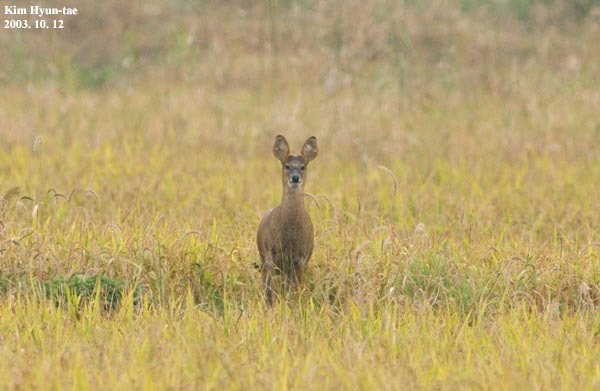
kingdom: Animalia
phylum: Chordata
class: Mammalia
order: Artiodactyla
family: Cervidae
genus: Hydropotes
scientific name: Hydropotes inermis
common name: Chinese water deer
